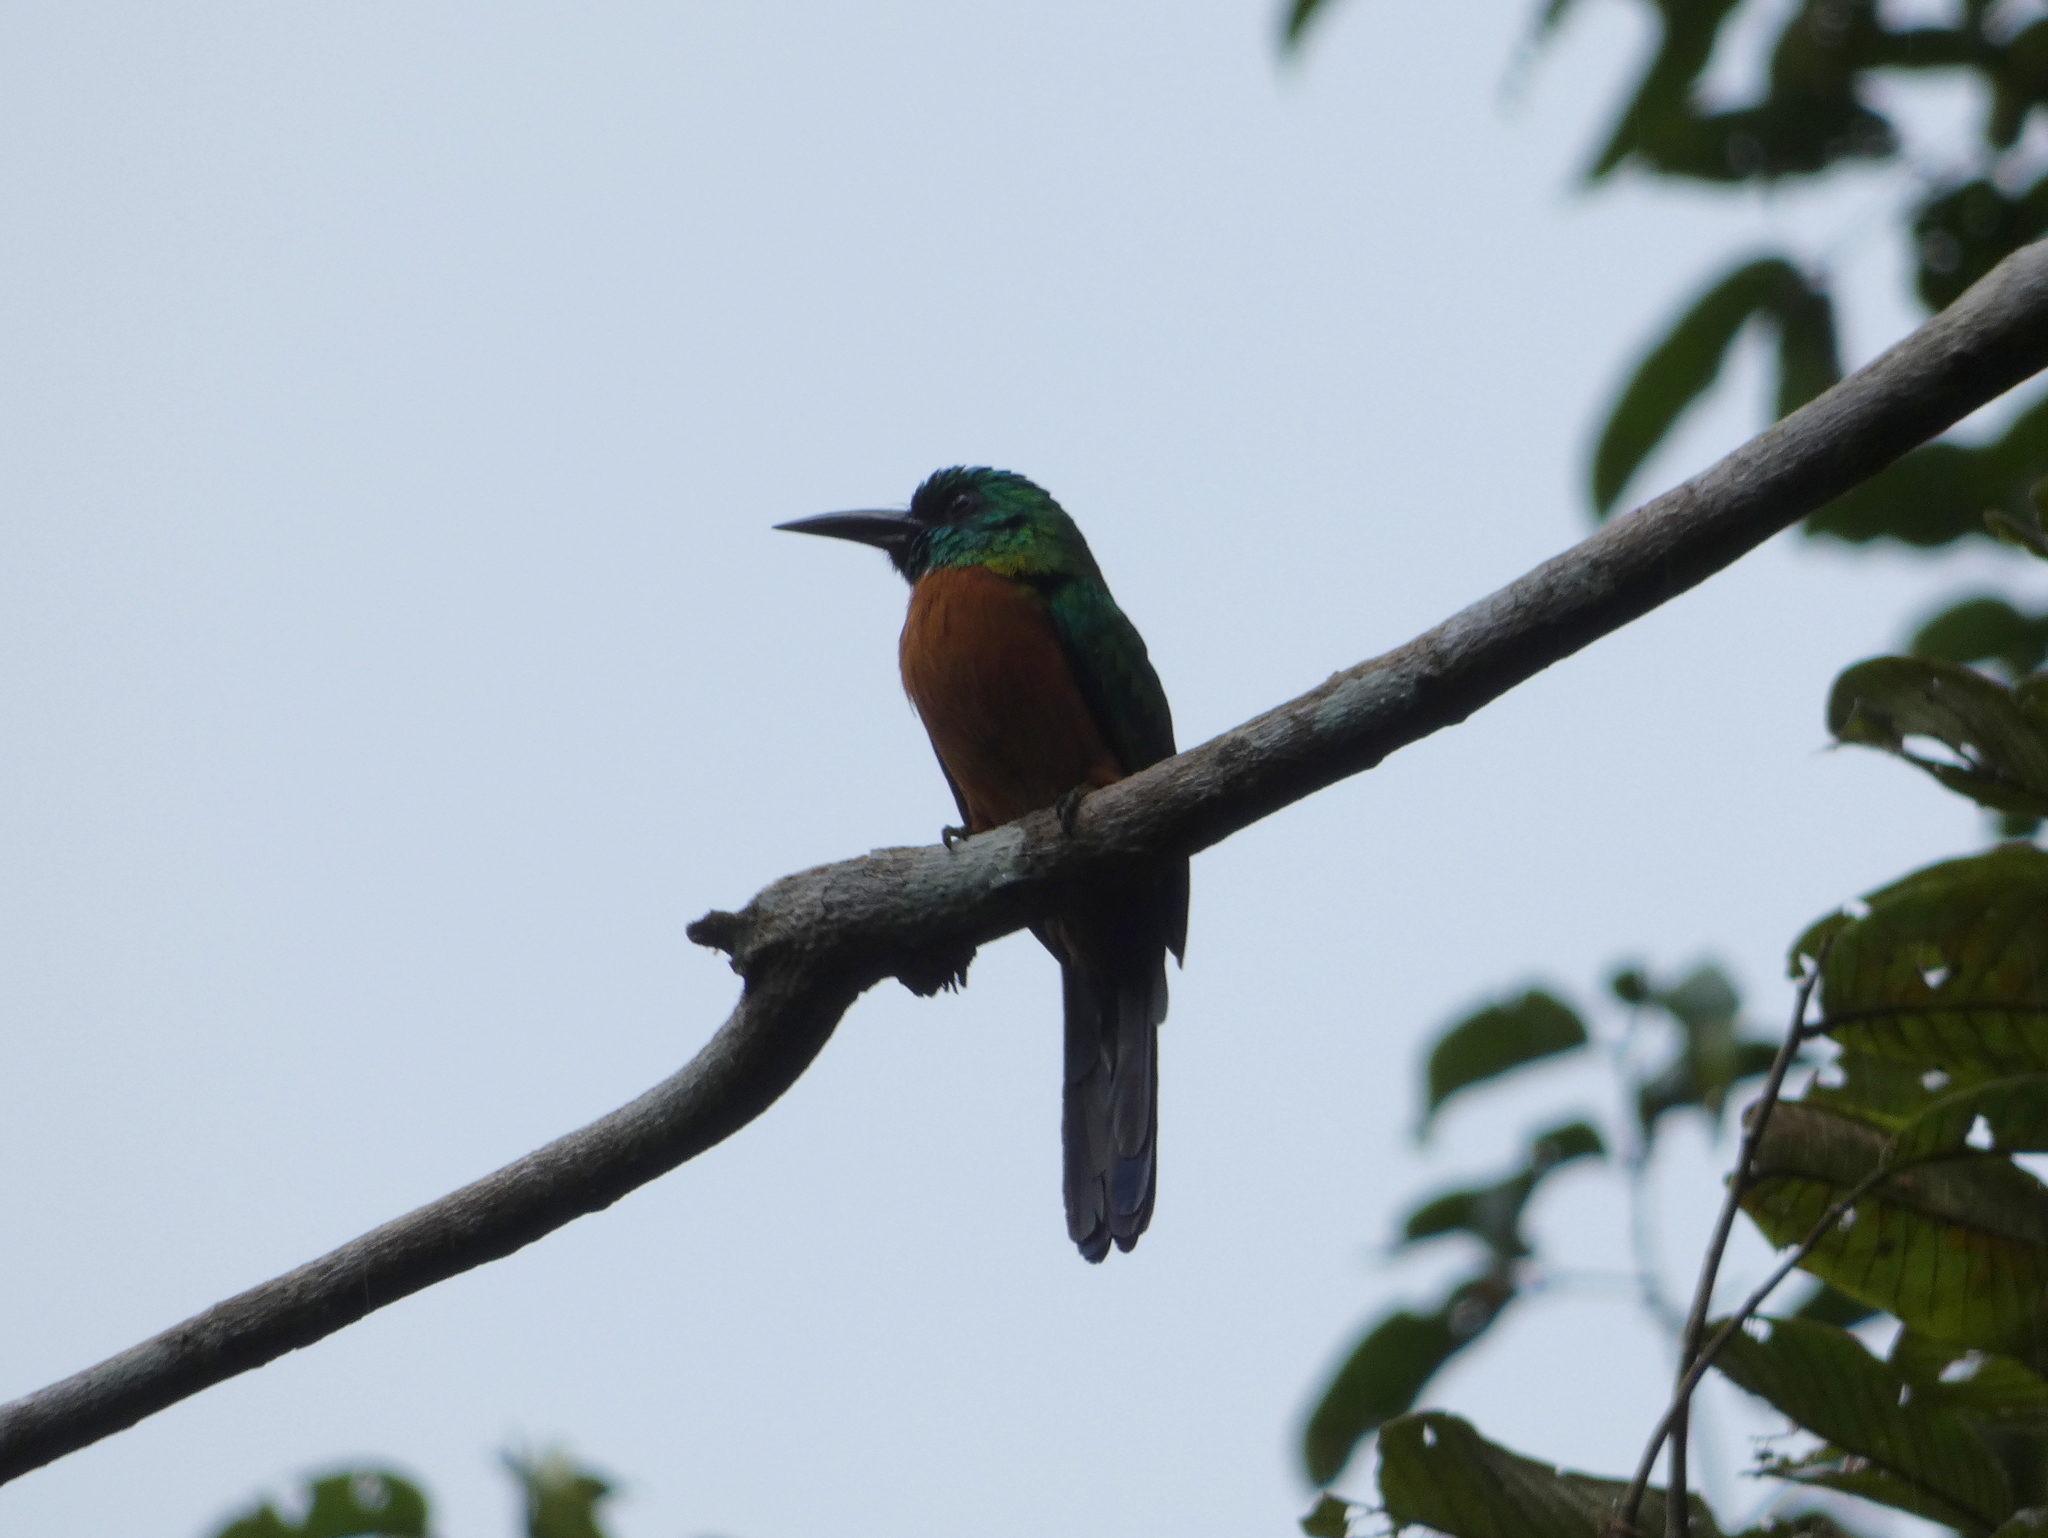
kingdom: Animalia
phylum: Chordata
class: Aves
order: Piciformes
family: Galbulidae
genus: Jacamerops
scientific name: Jacamerops aureus
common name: Great jacamar
